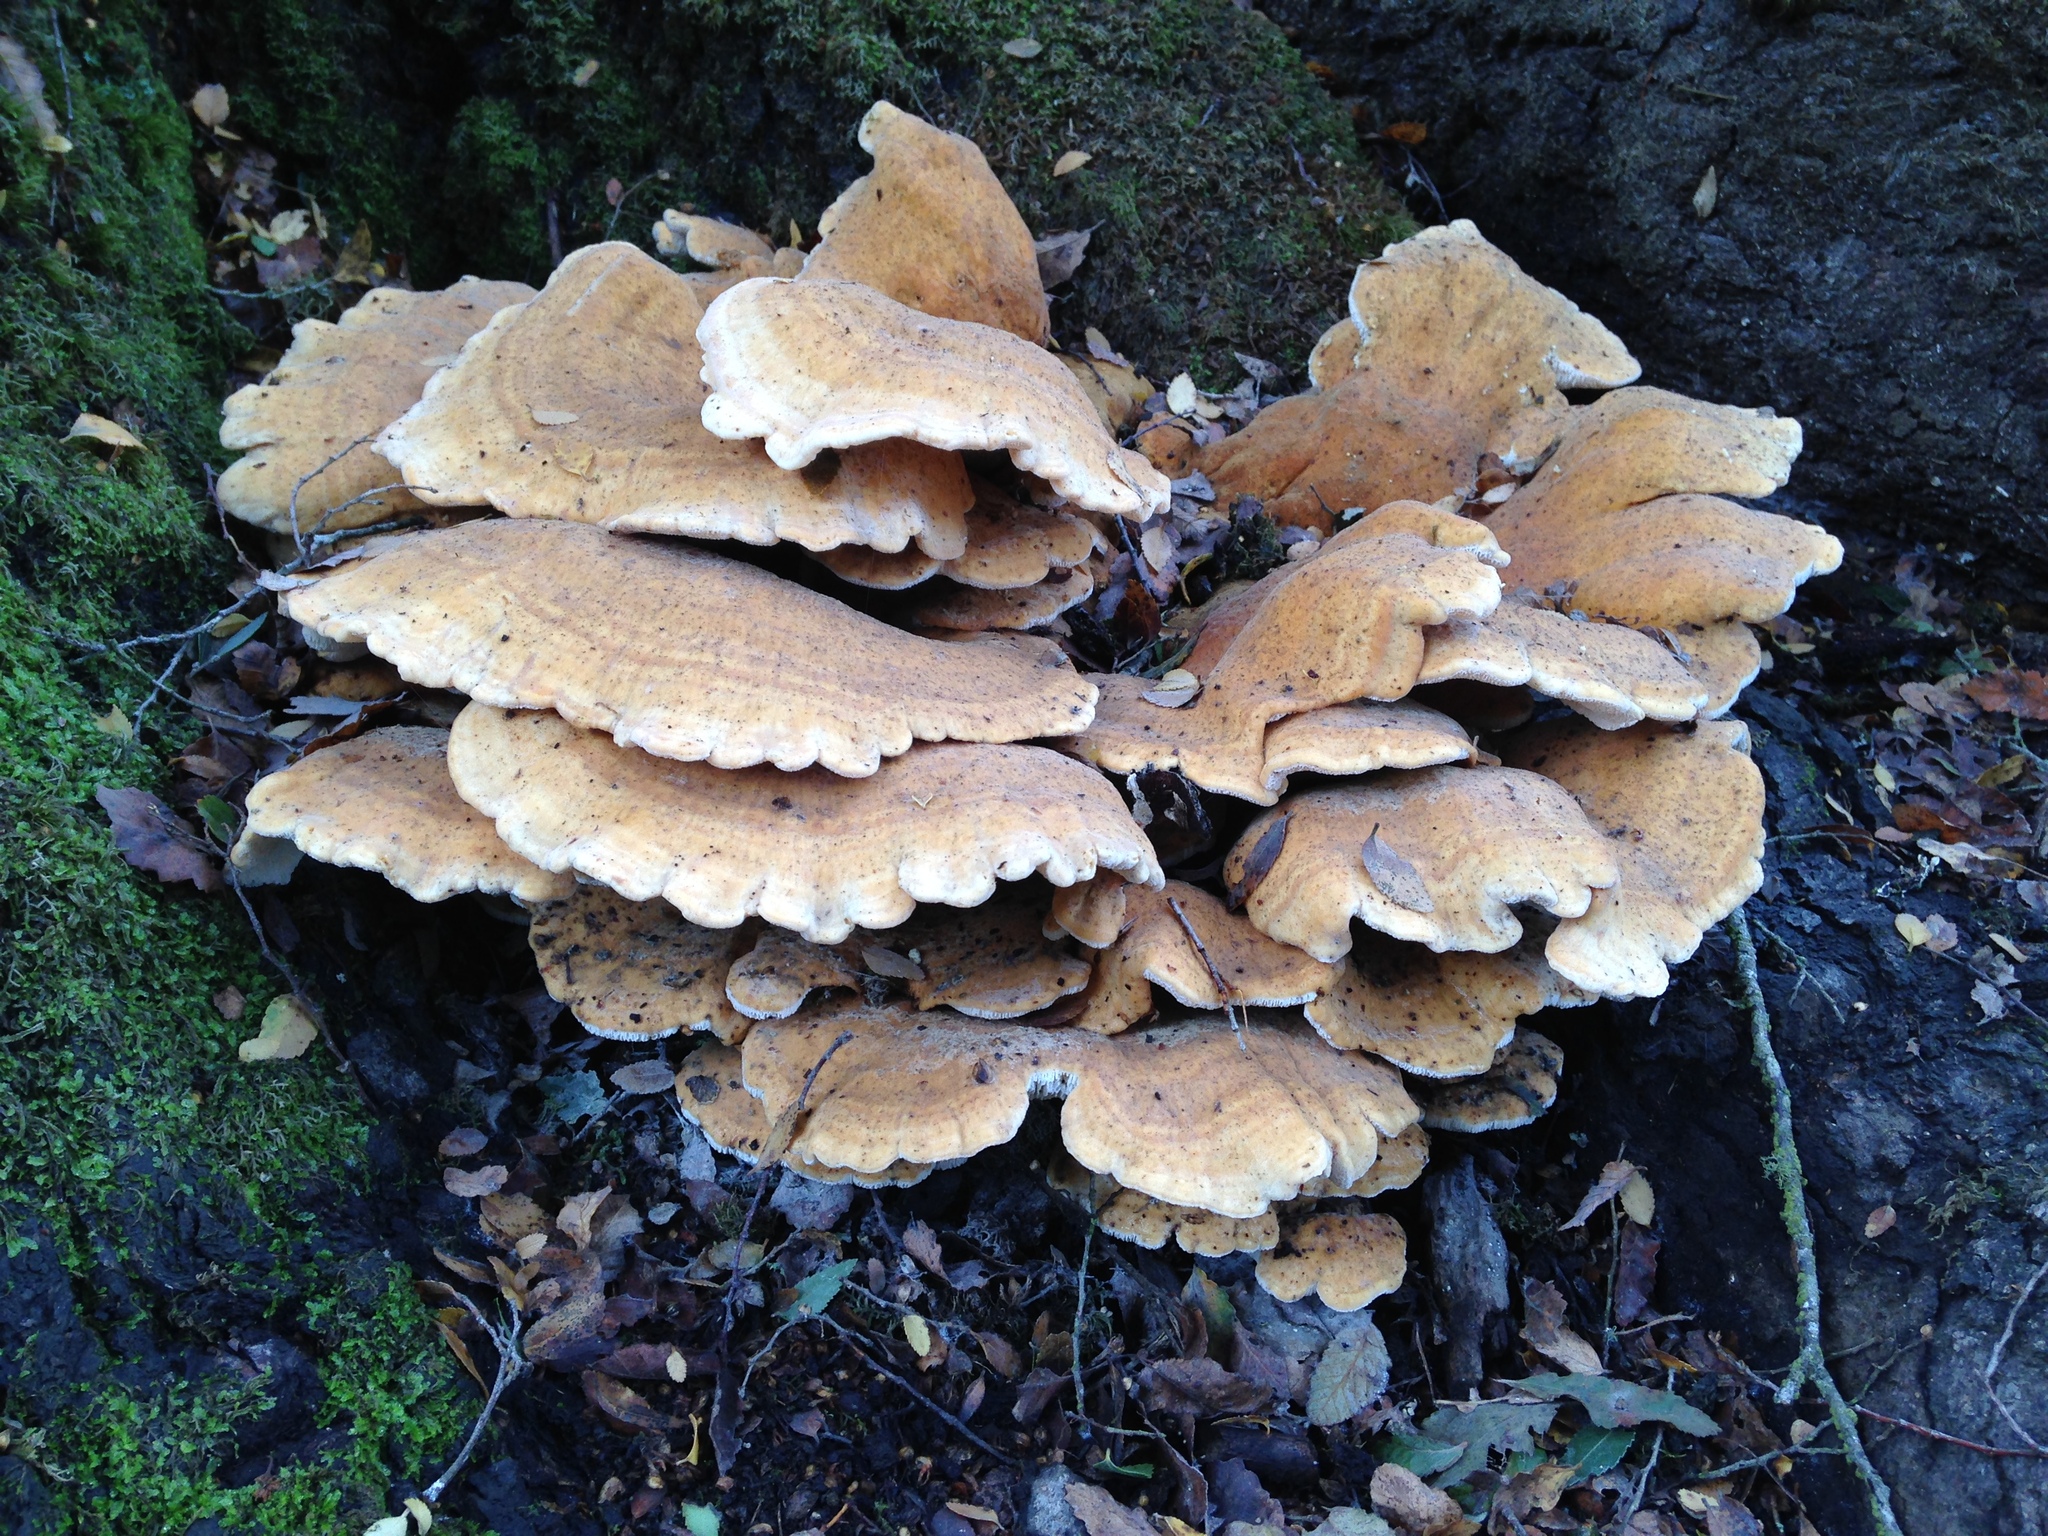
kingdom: Fungi
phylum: Basidiomycota
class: Agaricomycetes
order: Russulales
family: Bondarzewiaceae
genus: Bondarzewia
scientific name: Bondarzewia guaitecasensis
